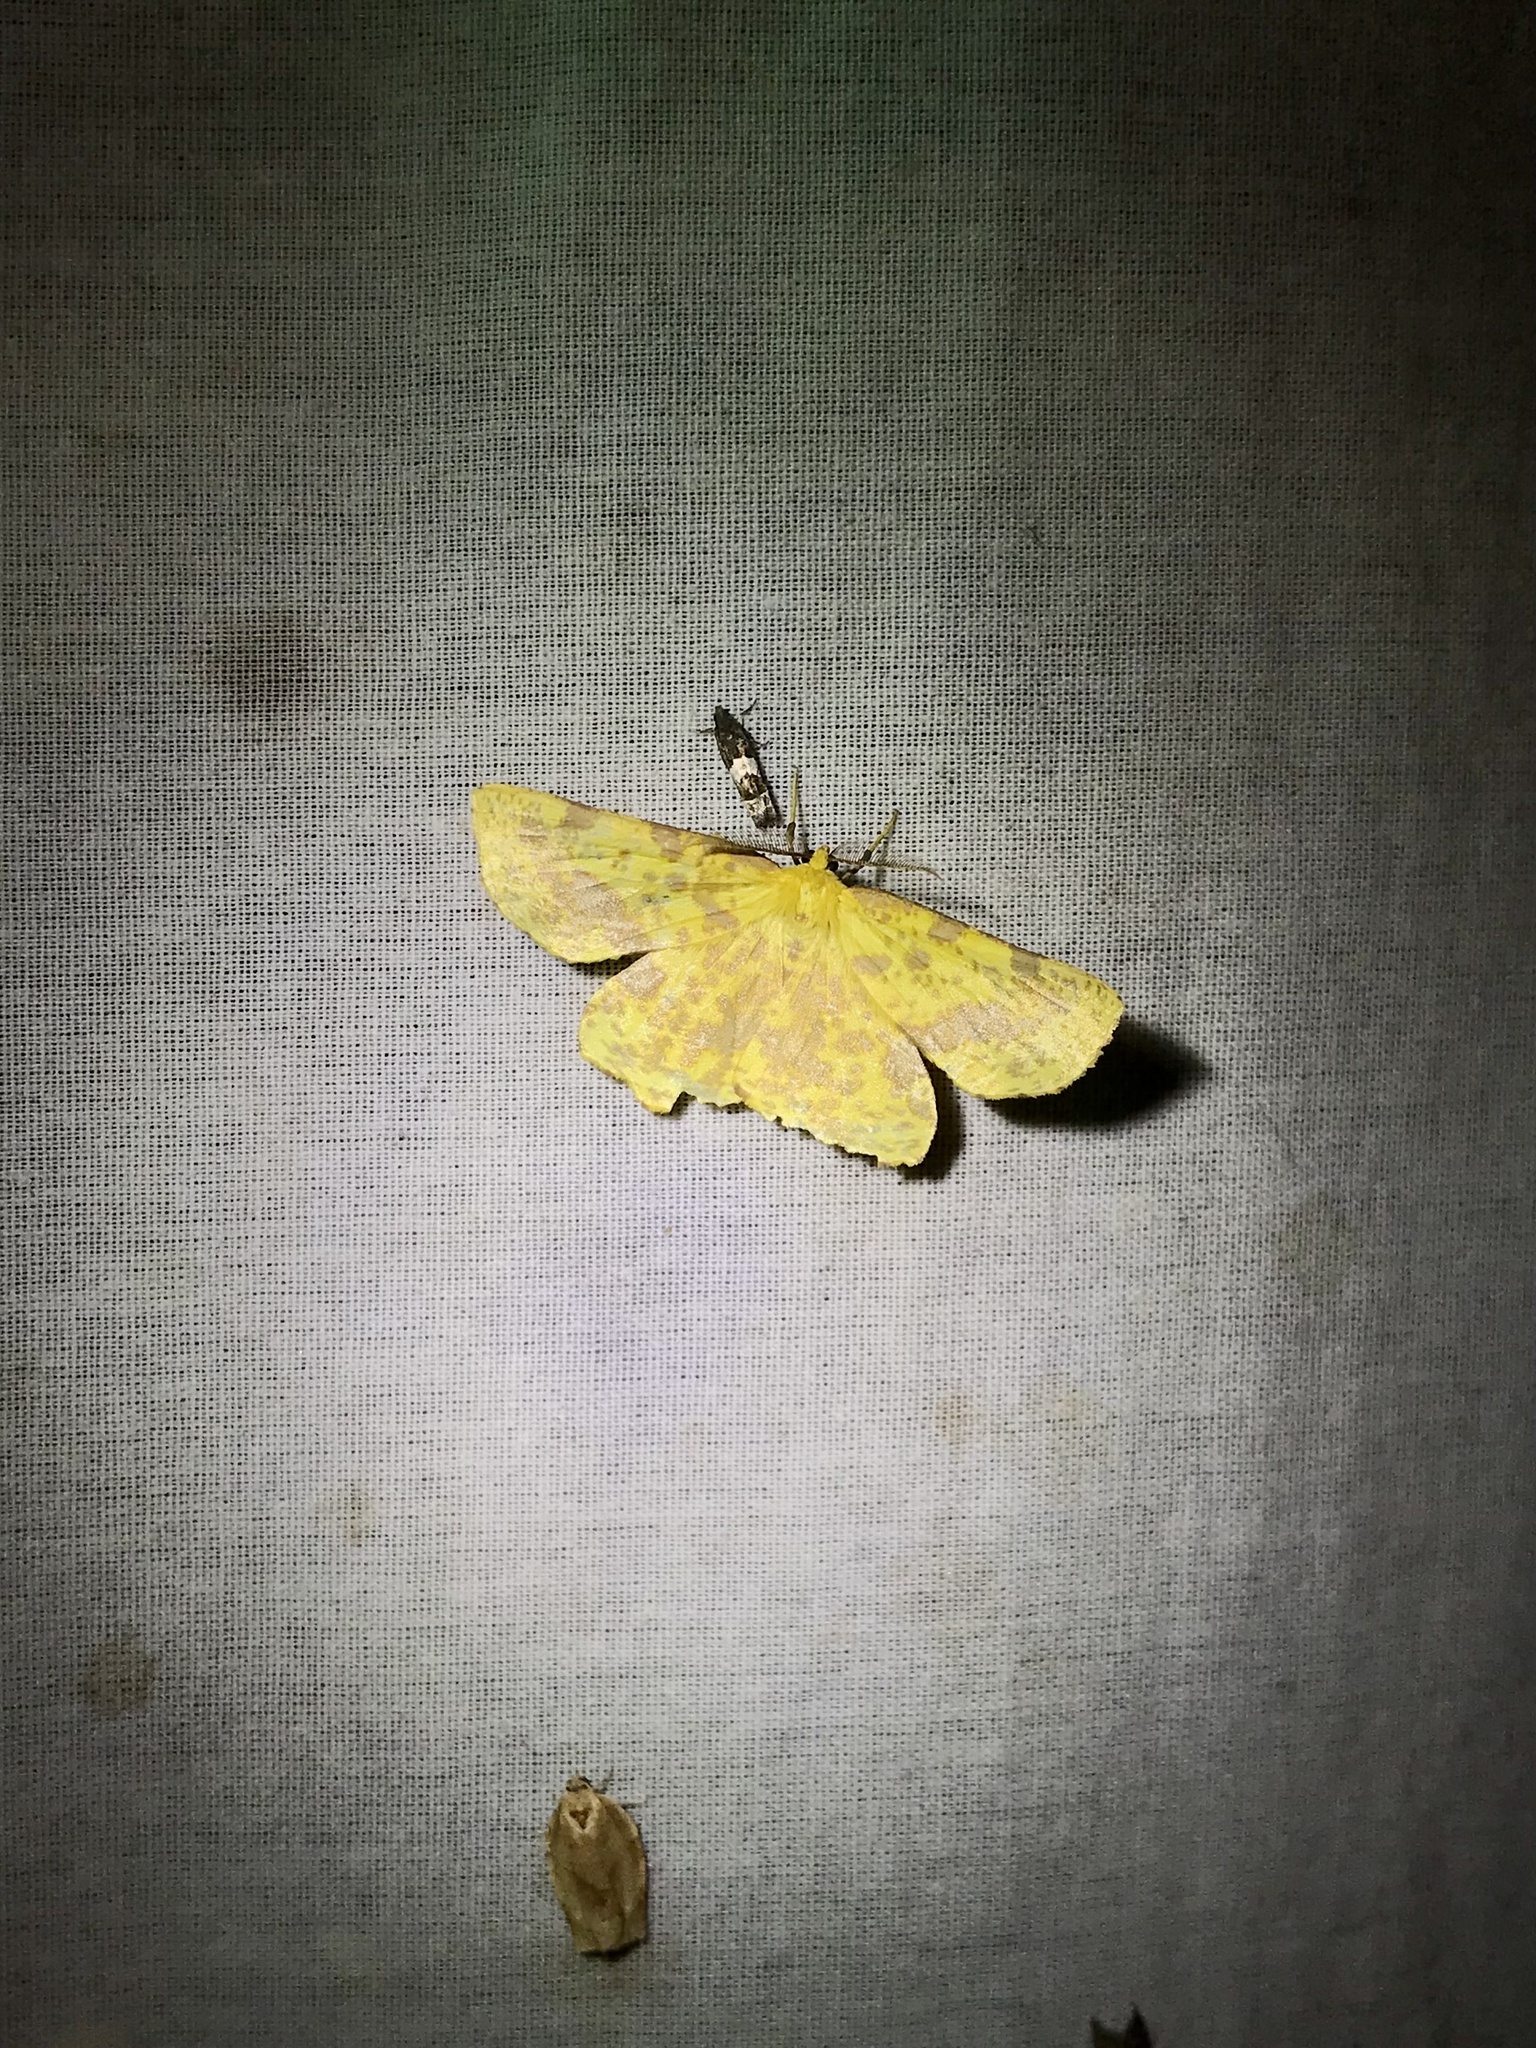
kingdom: Animalia
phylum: Arthropoda
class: Insecta
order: Lepidoptera
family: Geometridae
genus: Xanthotype
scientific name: Xanthotype
